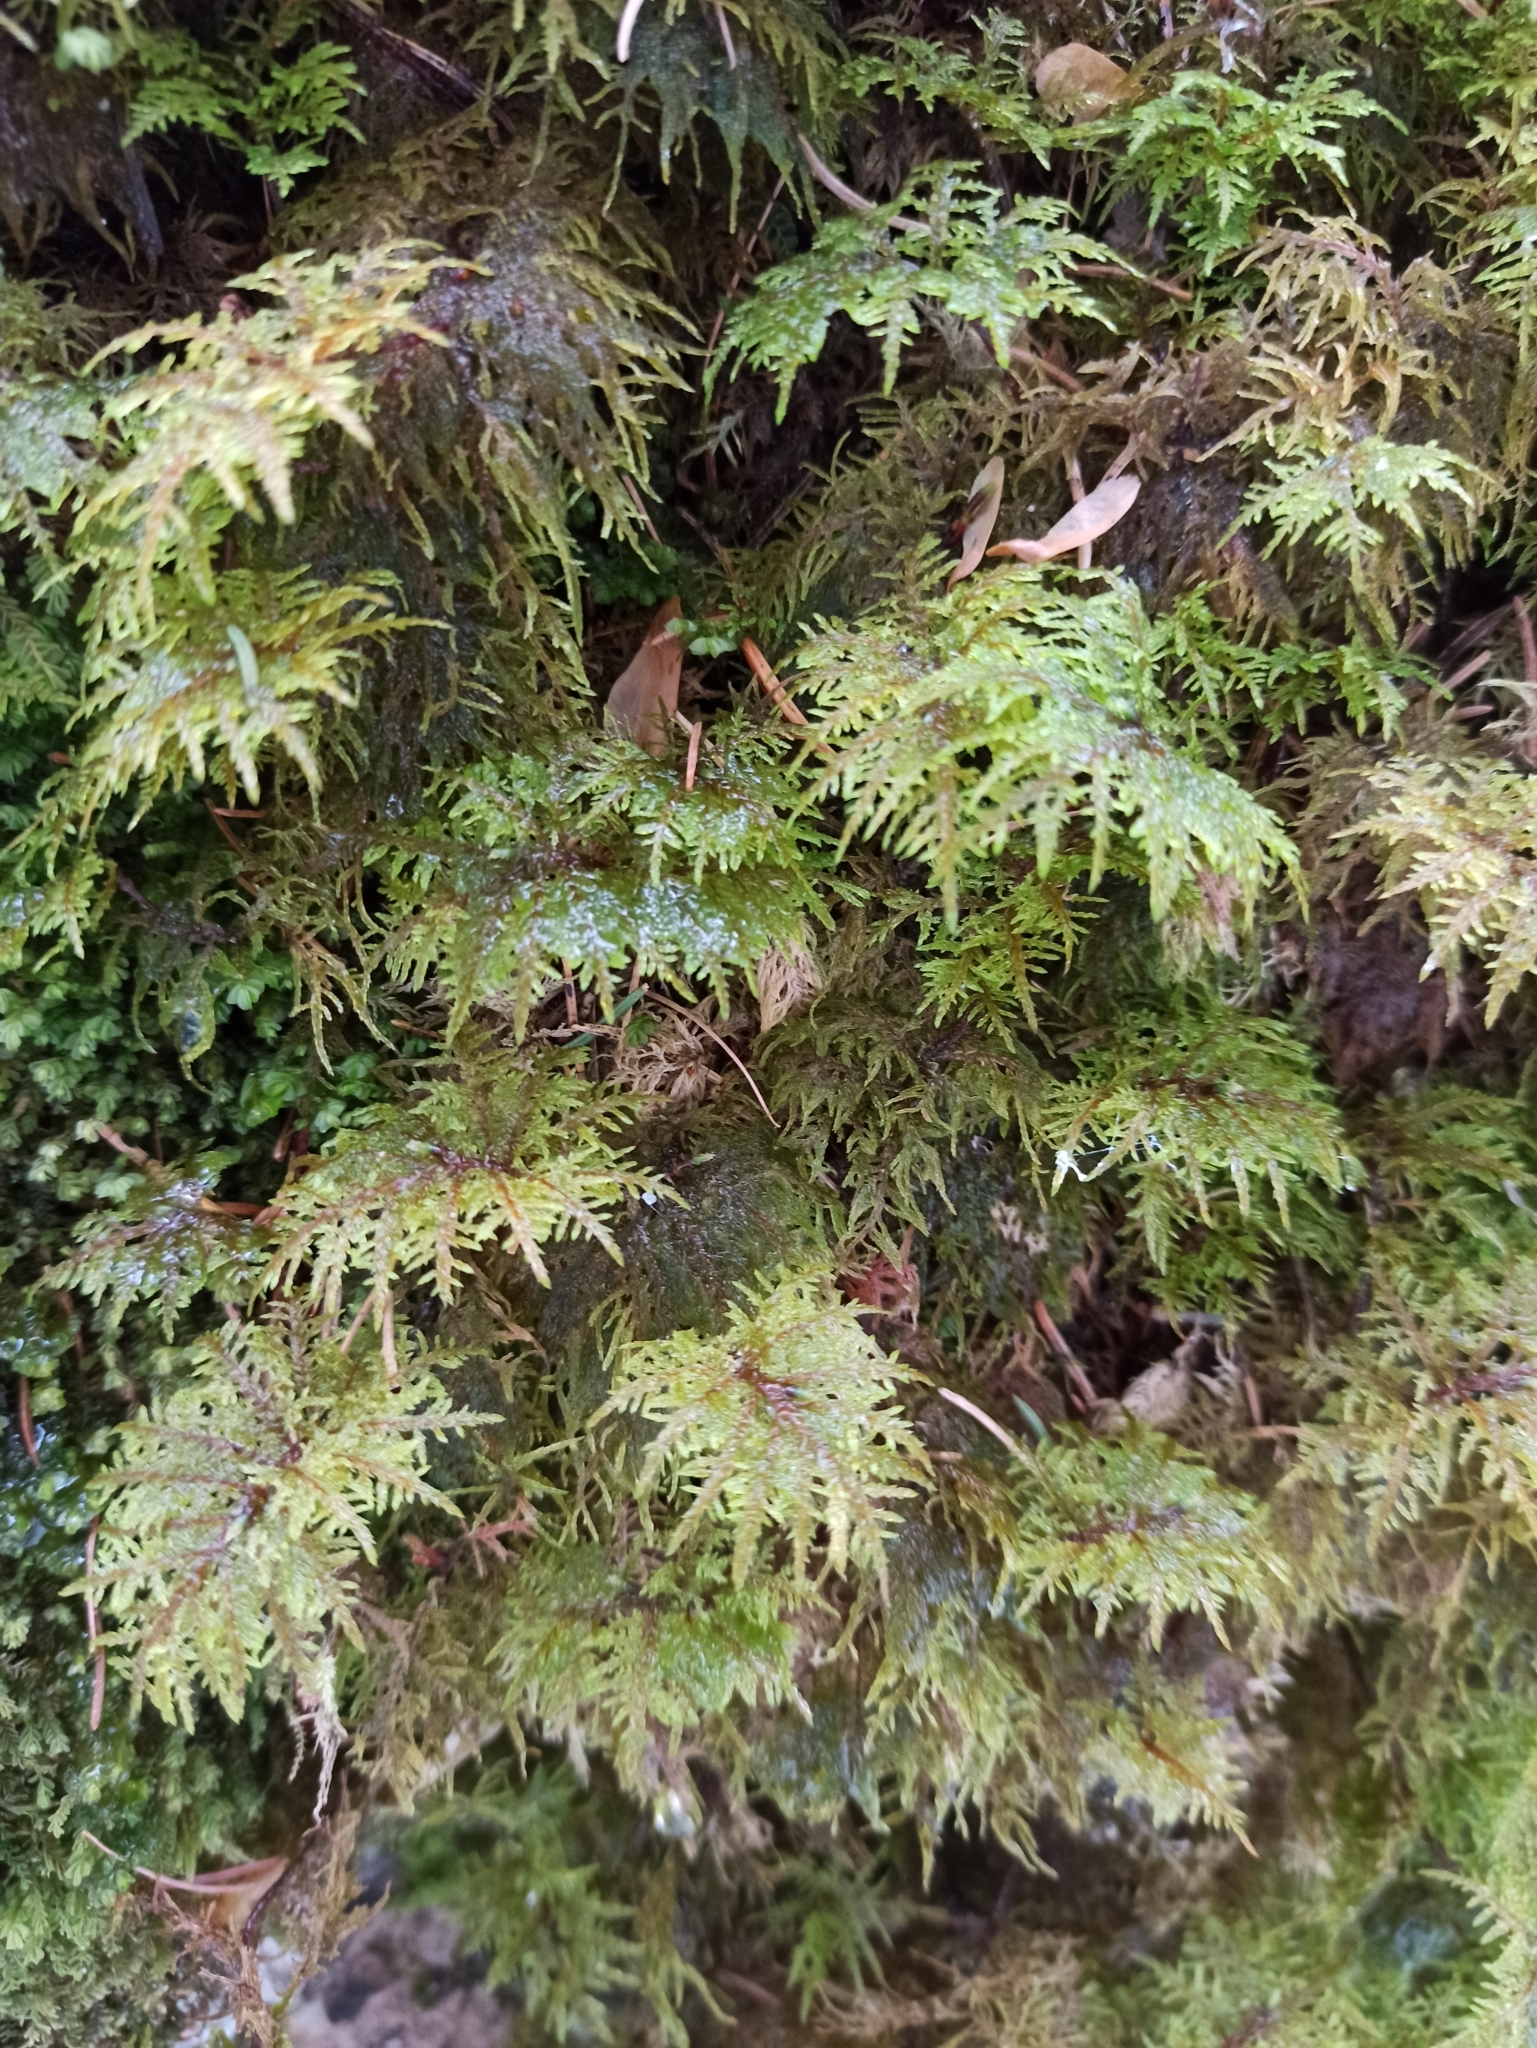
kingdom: Plantae
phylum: Bryophyta
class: Bryopsida
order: Hypnales
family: Hylocomiaceae
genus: Hylocomium
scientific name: Hylocomium splendens
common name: Stairstep moss
